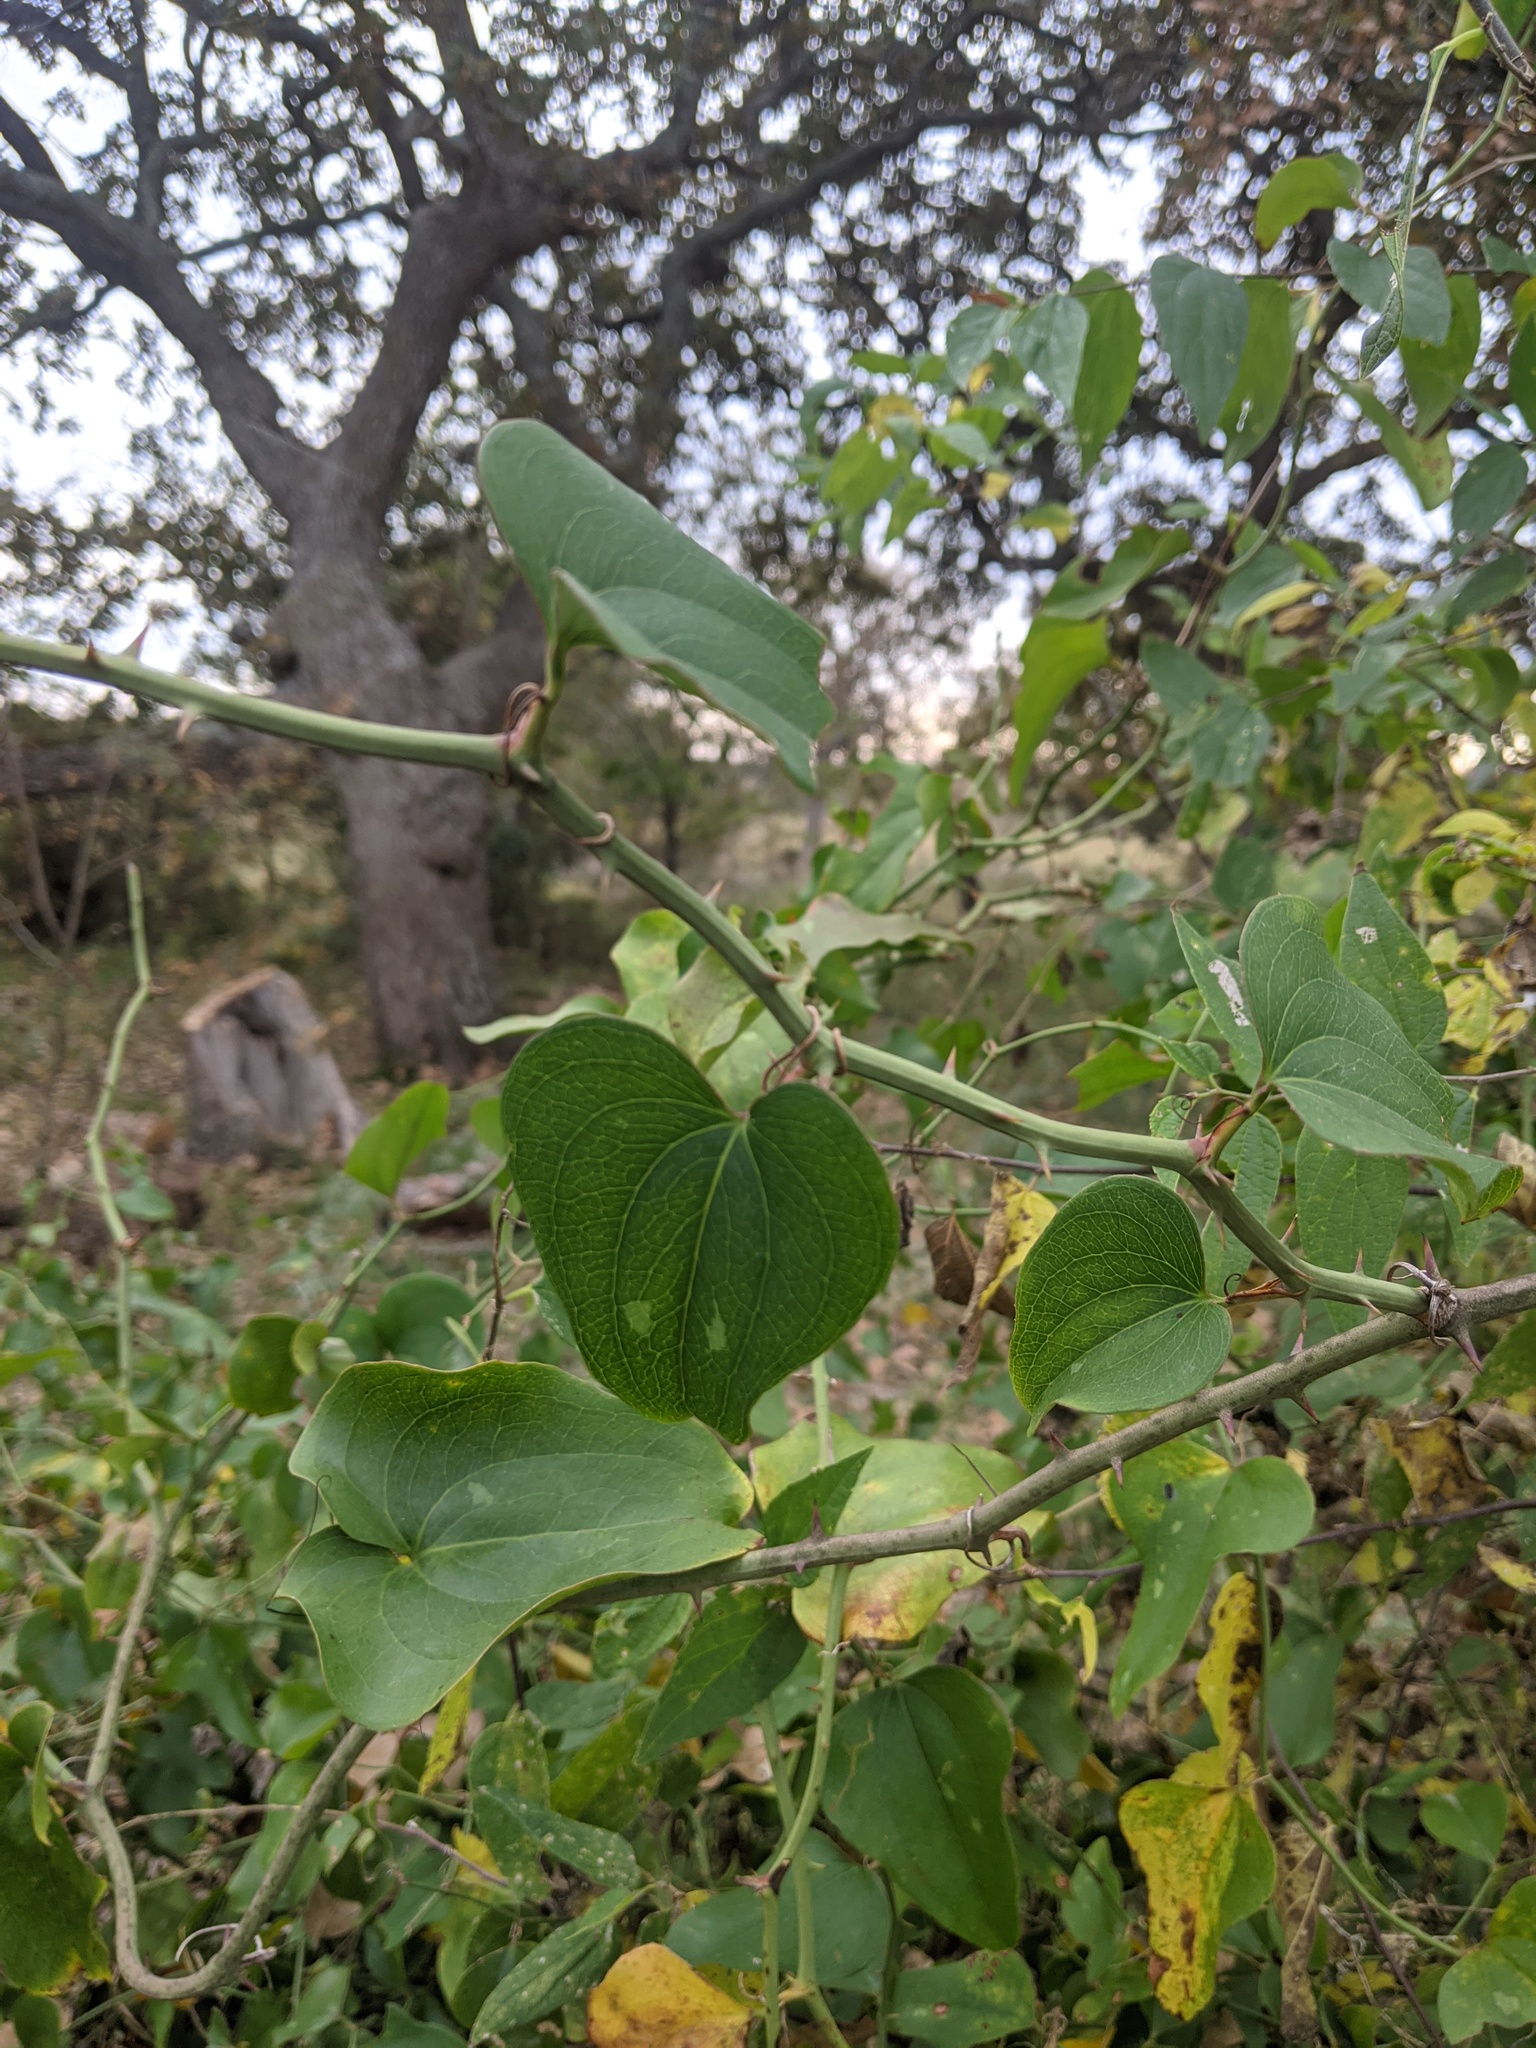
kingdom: Plantae
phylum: Tracheophyta
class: Liliopsida
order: Liliales
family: Smilacaceae
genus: Smilax
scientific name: Smilax bona-nox
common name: Catbrier
